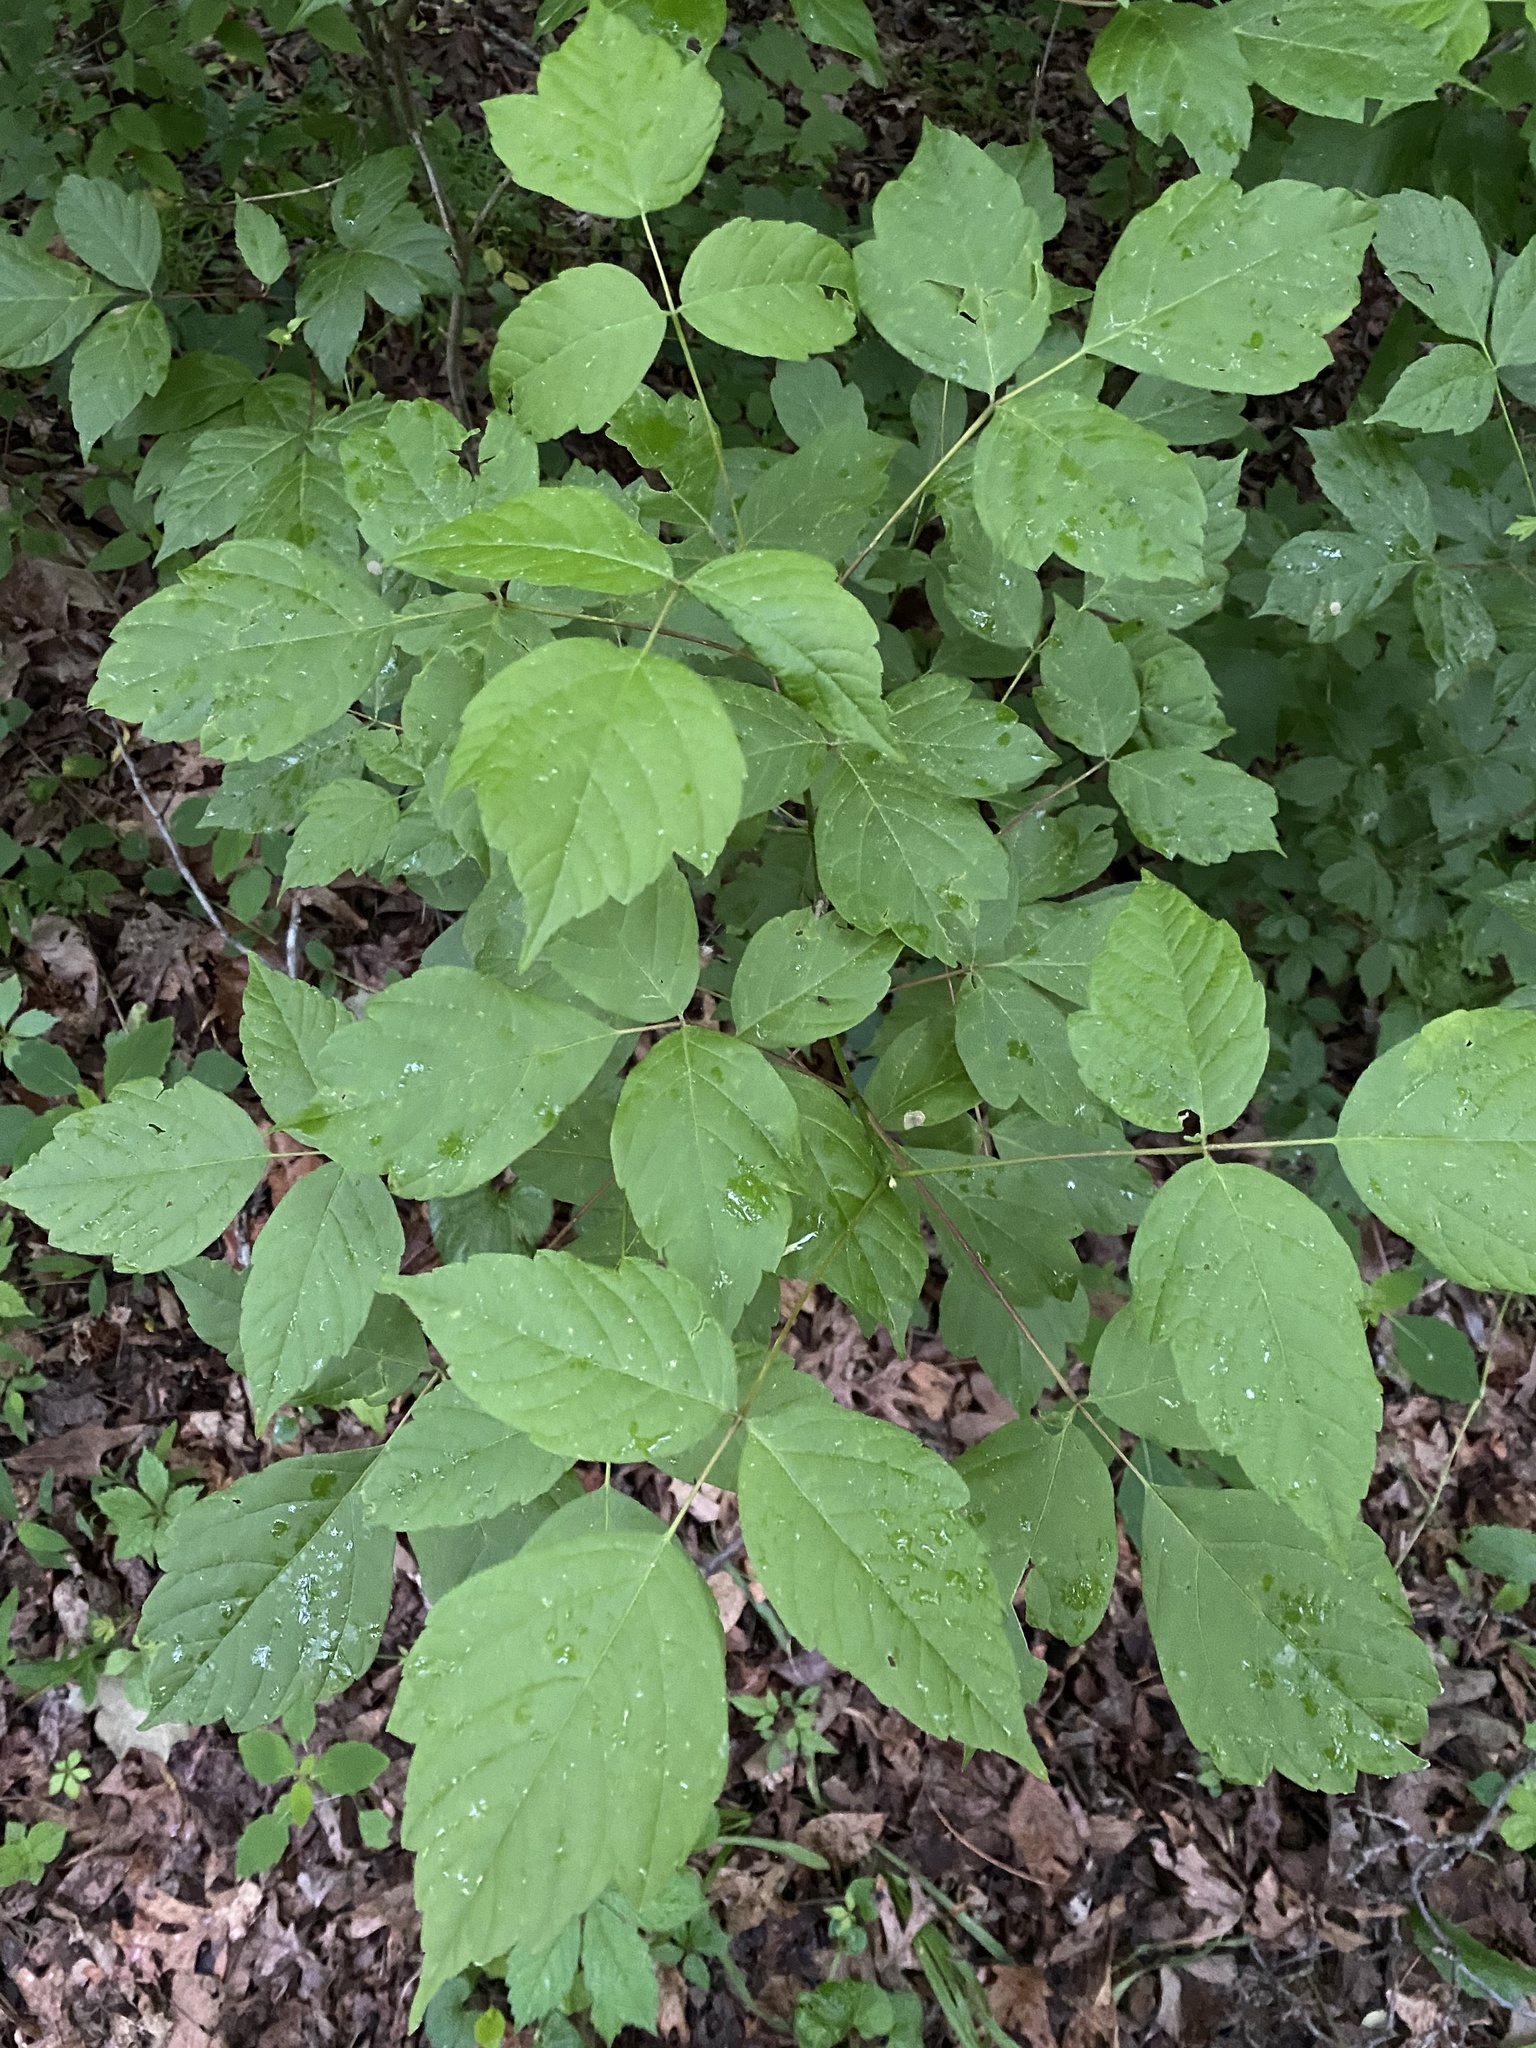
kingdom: Plantae
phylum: Tracheophyta
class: Magnoliopsida
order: Sapindales
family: Sapindaceae
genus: Acer
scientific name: Acer negundo
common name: Ashleaf maple
